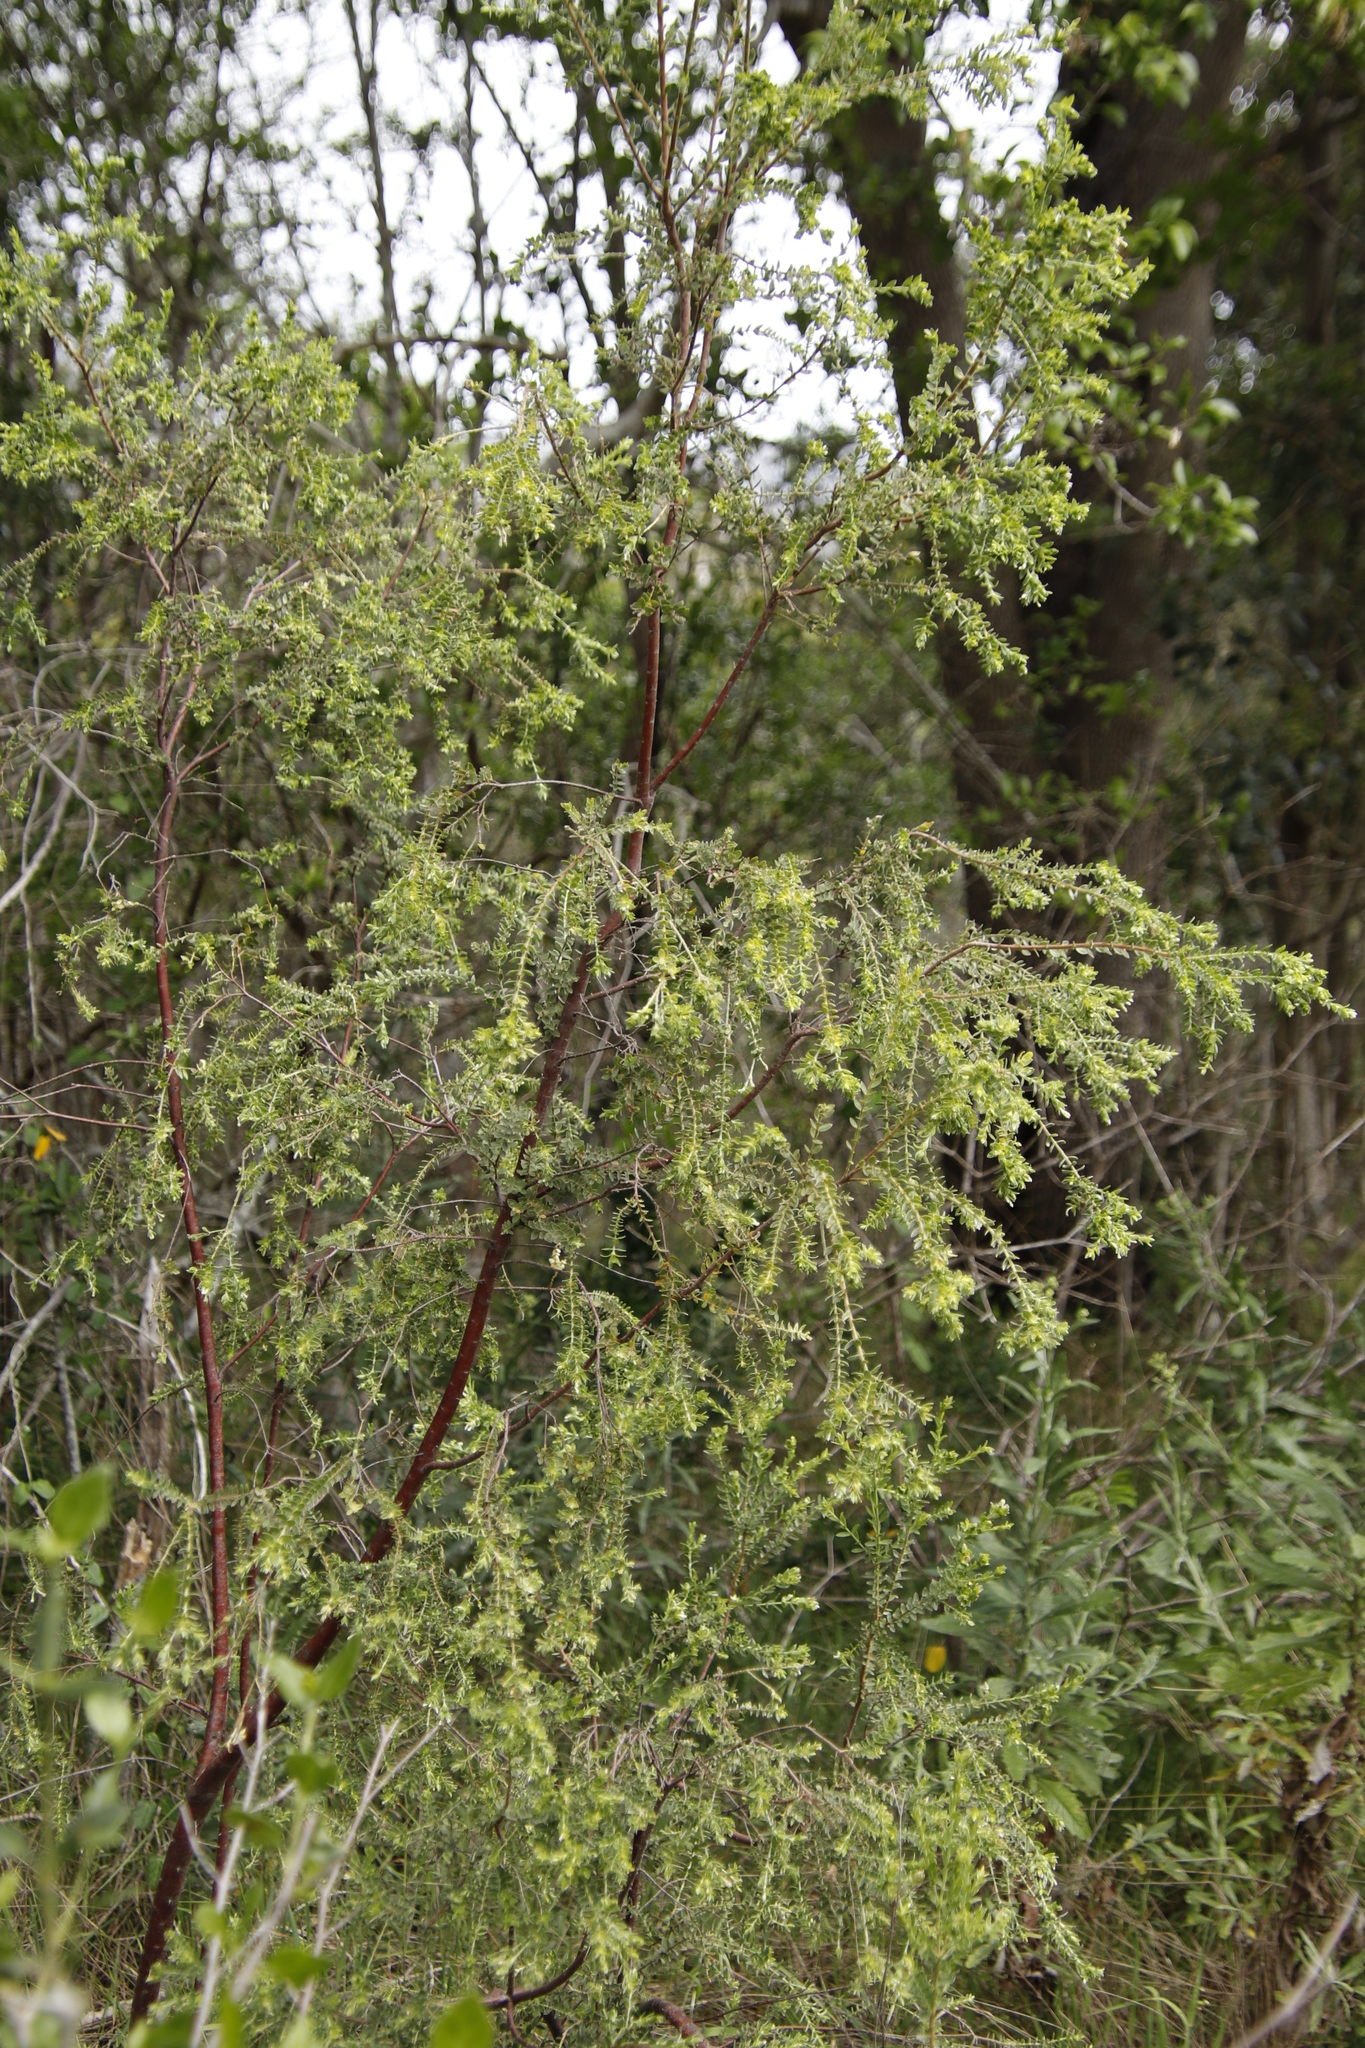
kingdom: Plantae
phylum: Tracheophyta
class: Magnoliopsida
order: Malvales
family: Thymelaeaceae
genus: Gnidia
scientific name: Gnidia sericea
